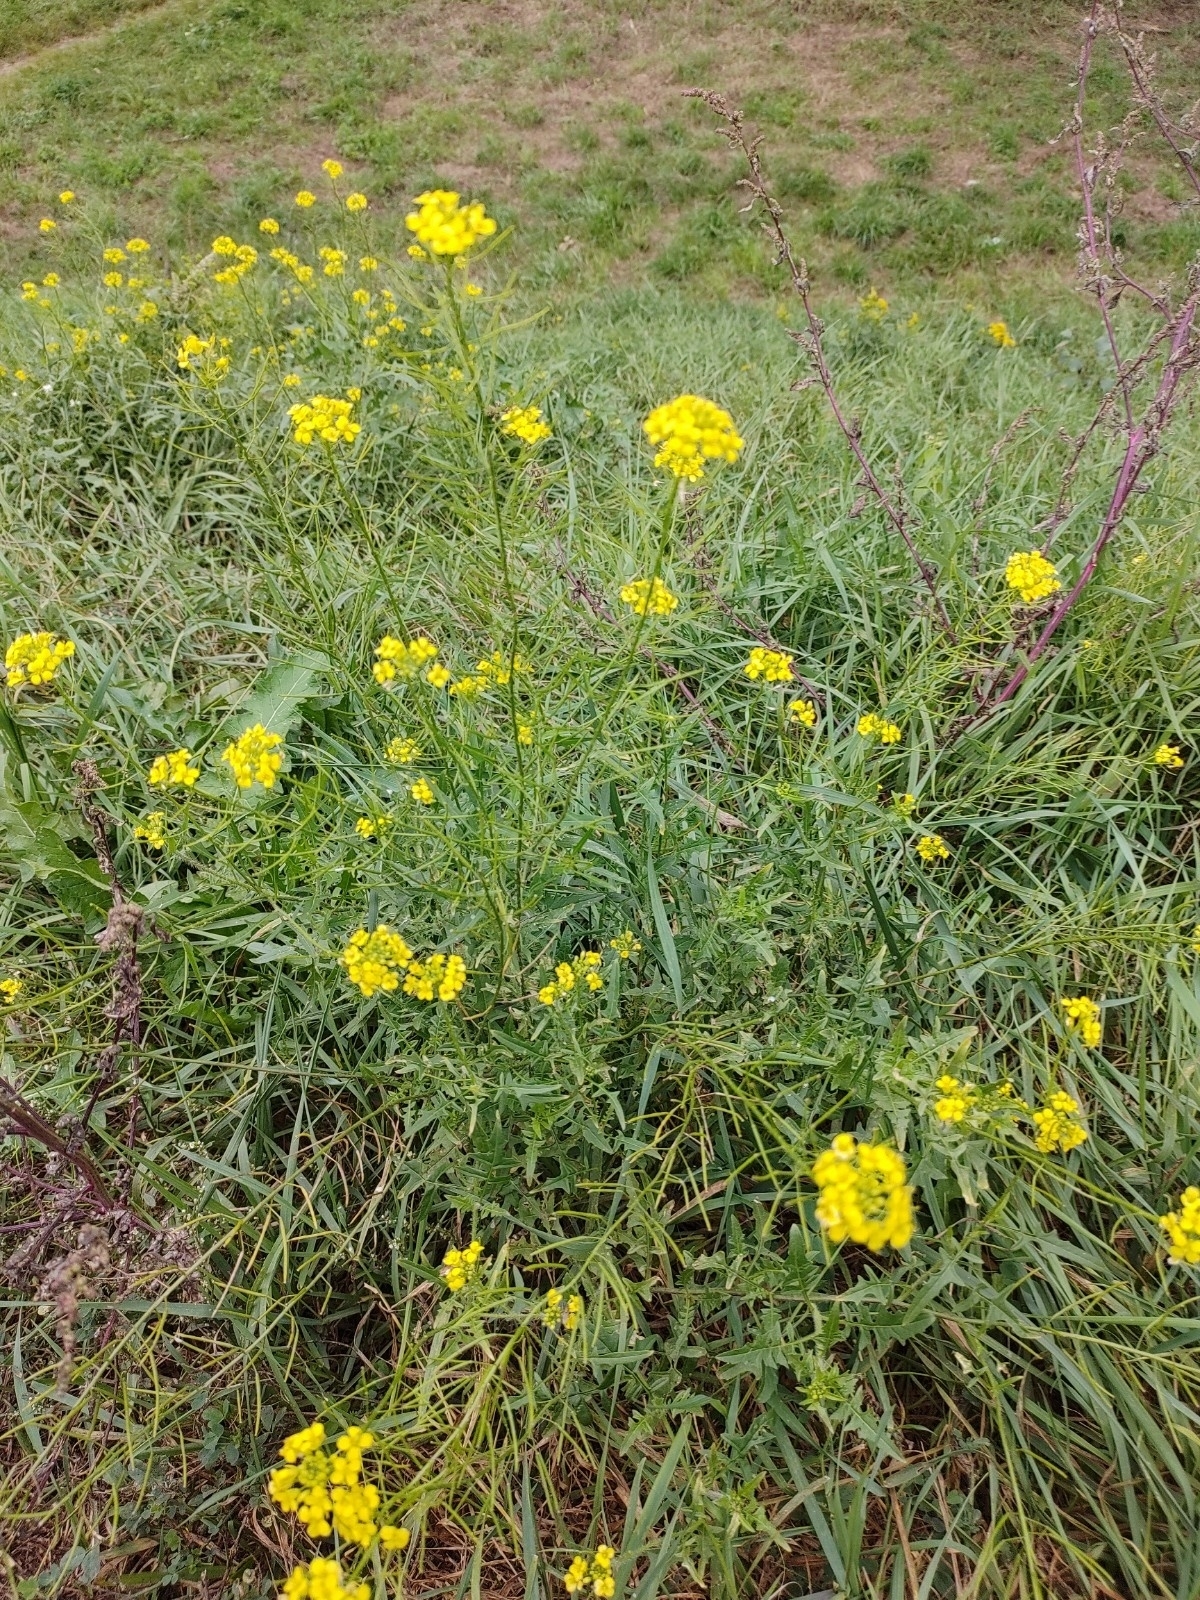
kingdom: Plantae
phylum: Tracheophyta
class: Magnoliopsida
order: Brassicales
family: Brassicaceae
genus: Sisymbrium
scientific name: Sisymbrium loeselii
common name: False london-rocket
